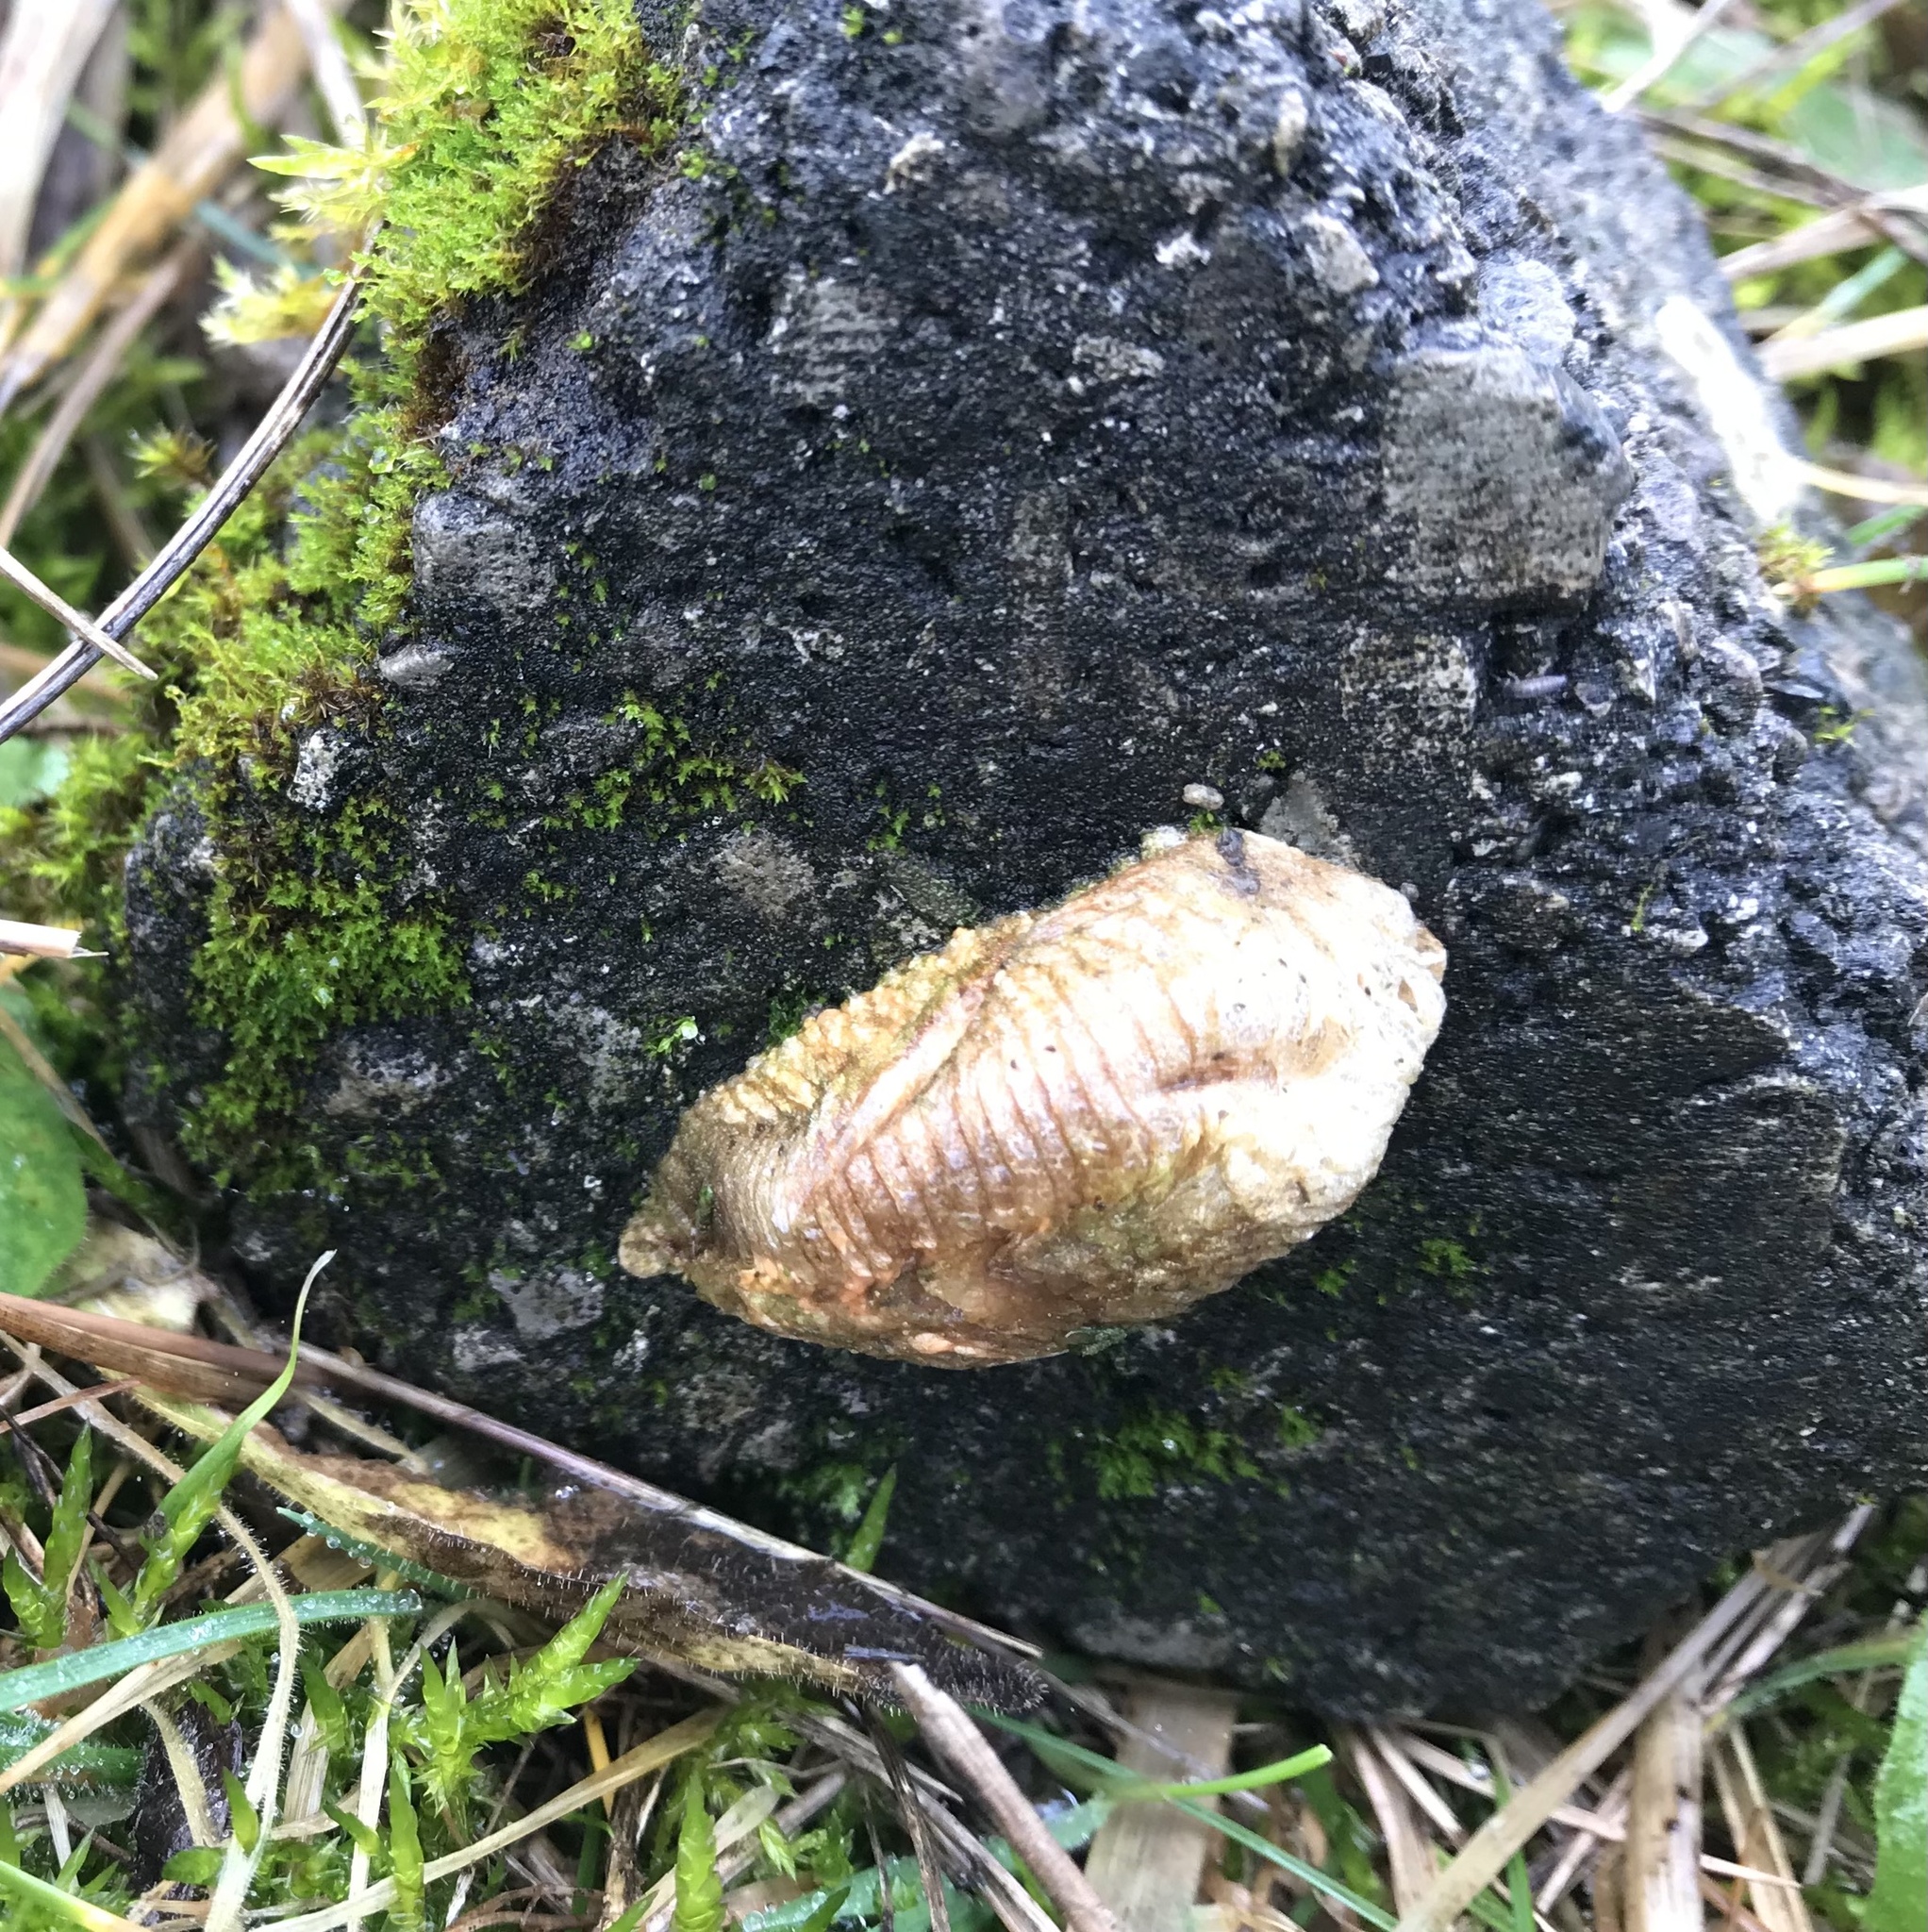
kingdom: Animalia
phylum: Arthropoda
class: Insecta
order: Mantodea
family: Mantidae
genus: Mantis
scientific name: Mantis religiosa
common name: Praying mantis
